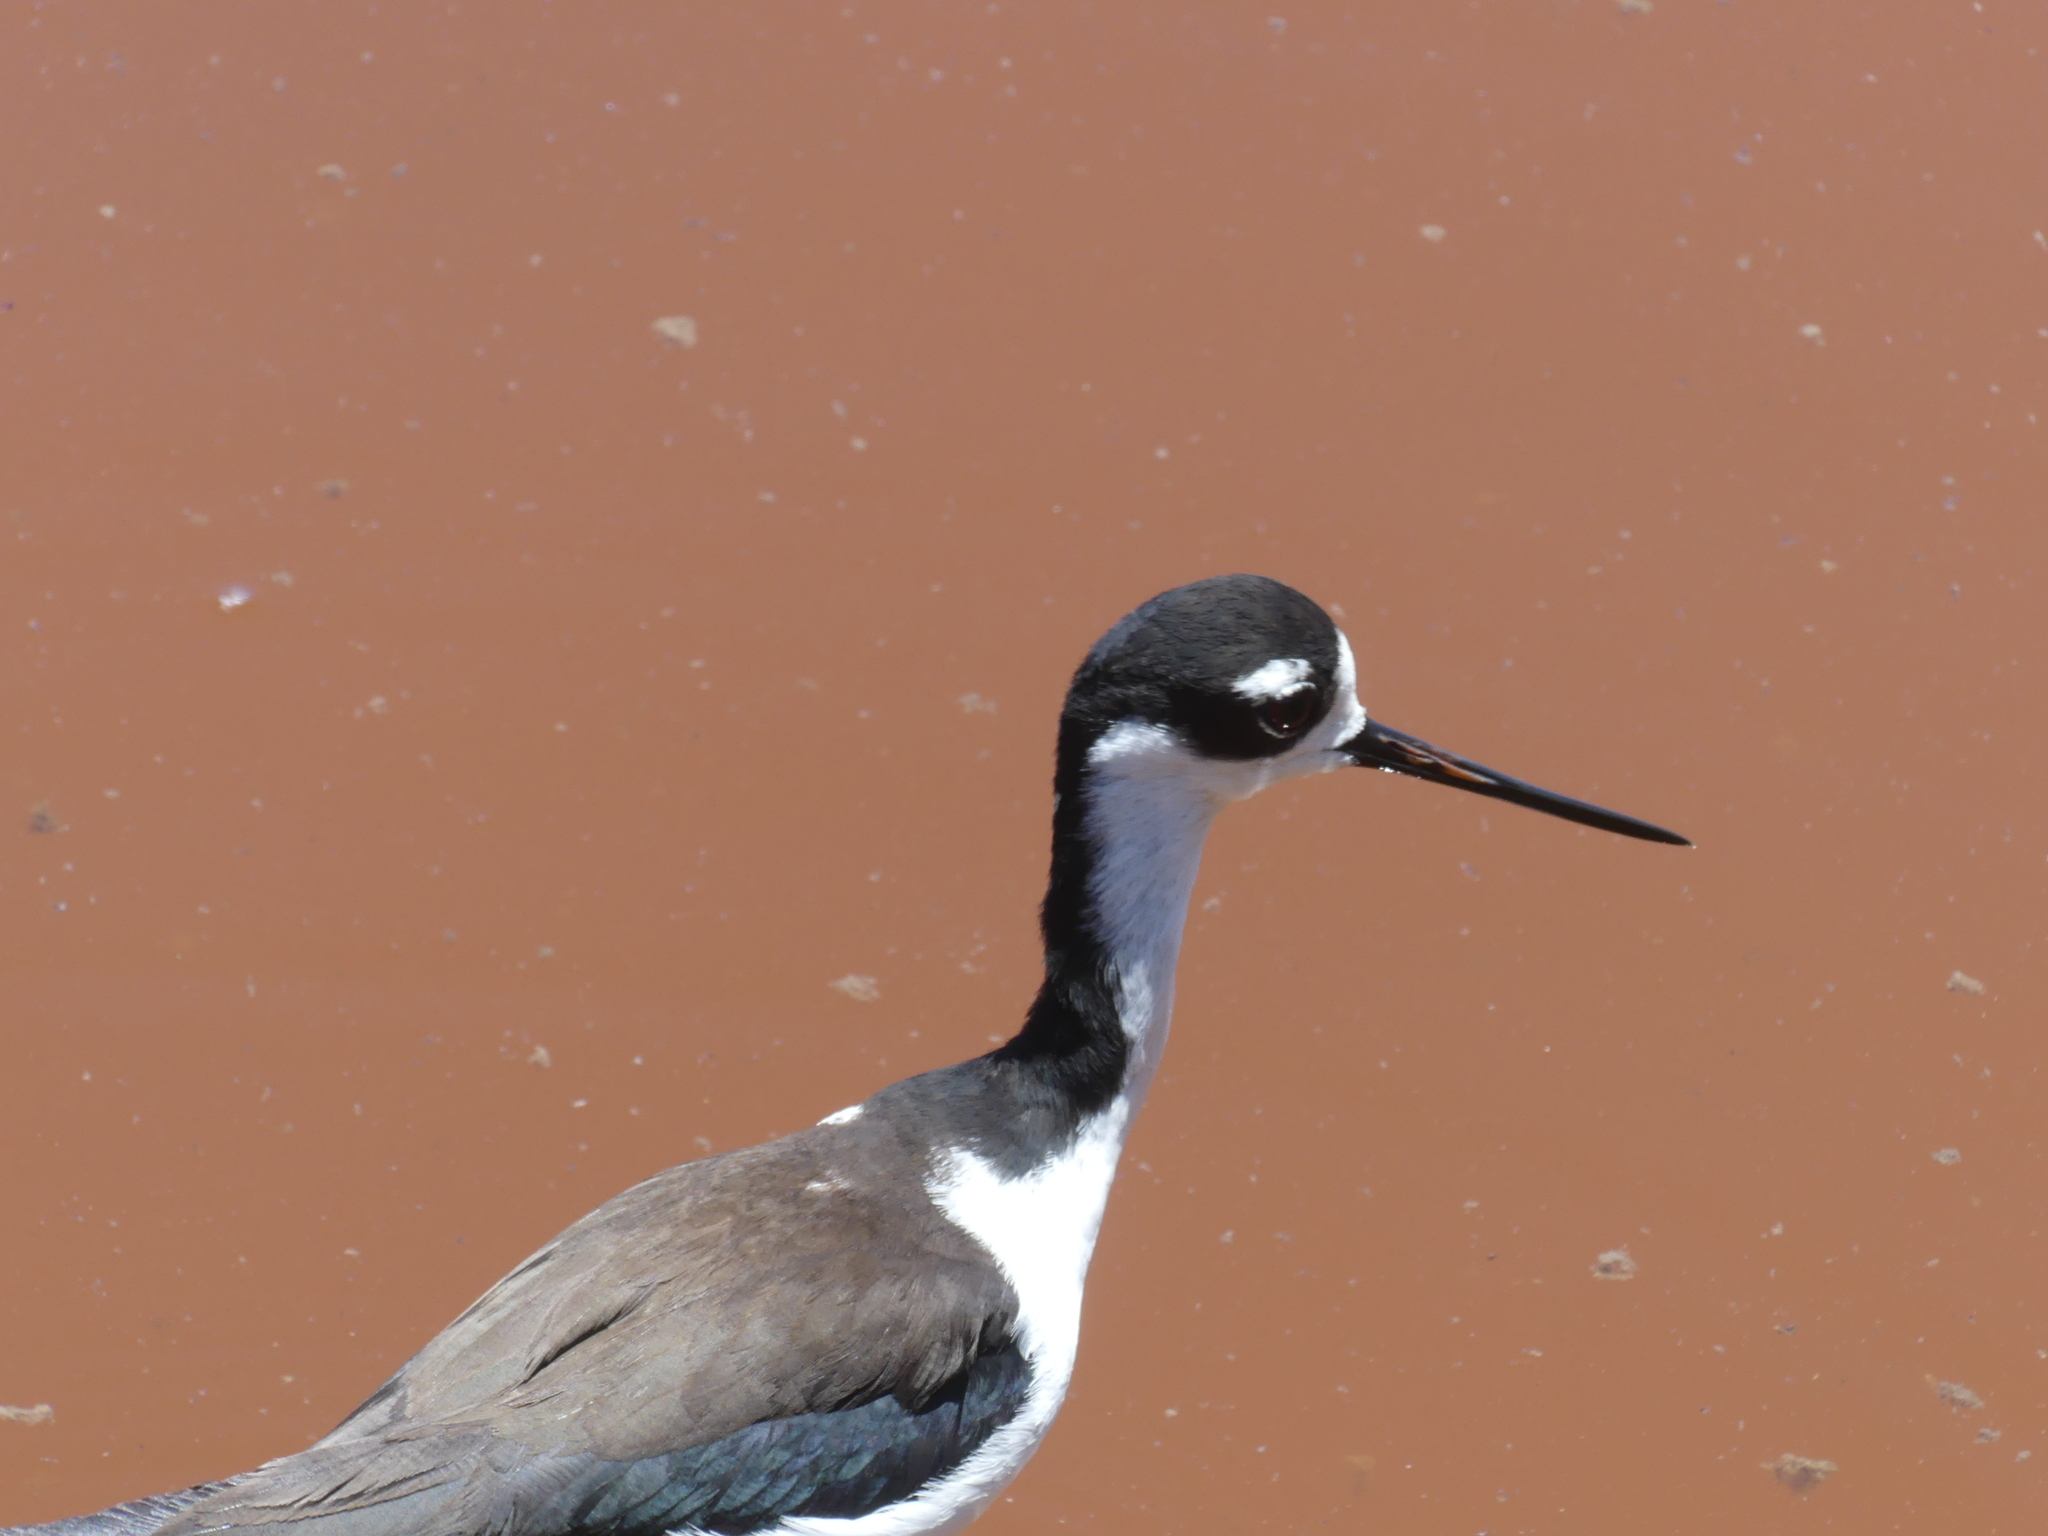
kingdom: Animalia
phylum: Chordata
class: Aves
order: Charadriiformes
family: Recurvirostridae
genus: Himantopus
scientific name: Himantopus mexicanus
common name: Black-necked stilt
